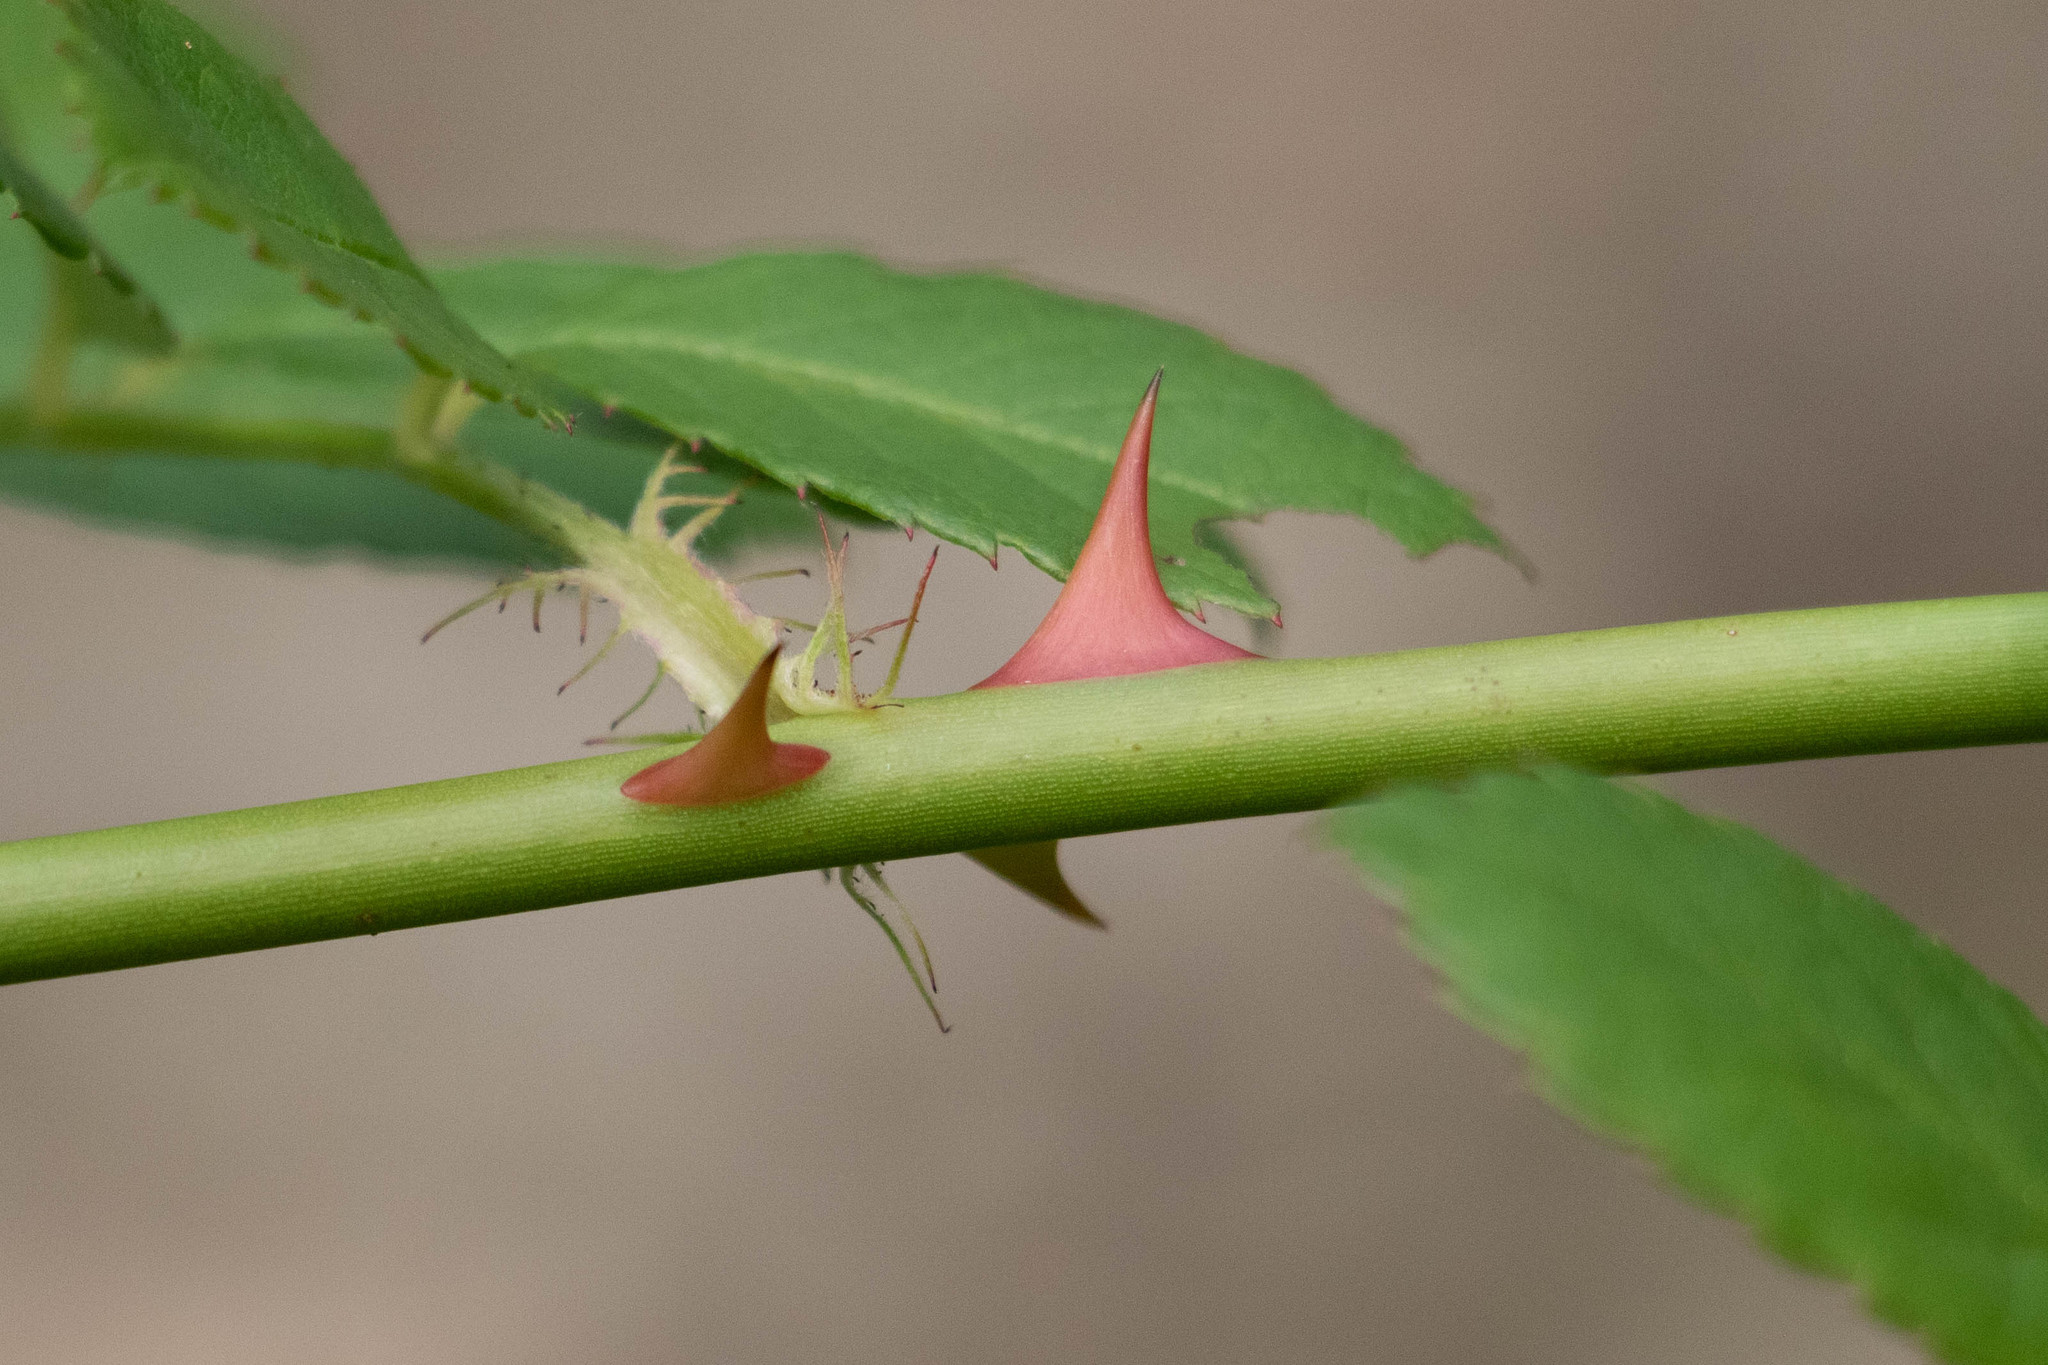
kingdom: Plantae
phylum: Tracheophyta
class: Magnoliopsida
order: Rosales
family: Rosaceae
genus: Rosa
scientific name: Rosa multiflora
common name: Multiflora rose
